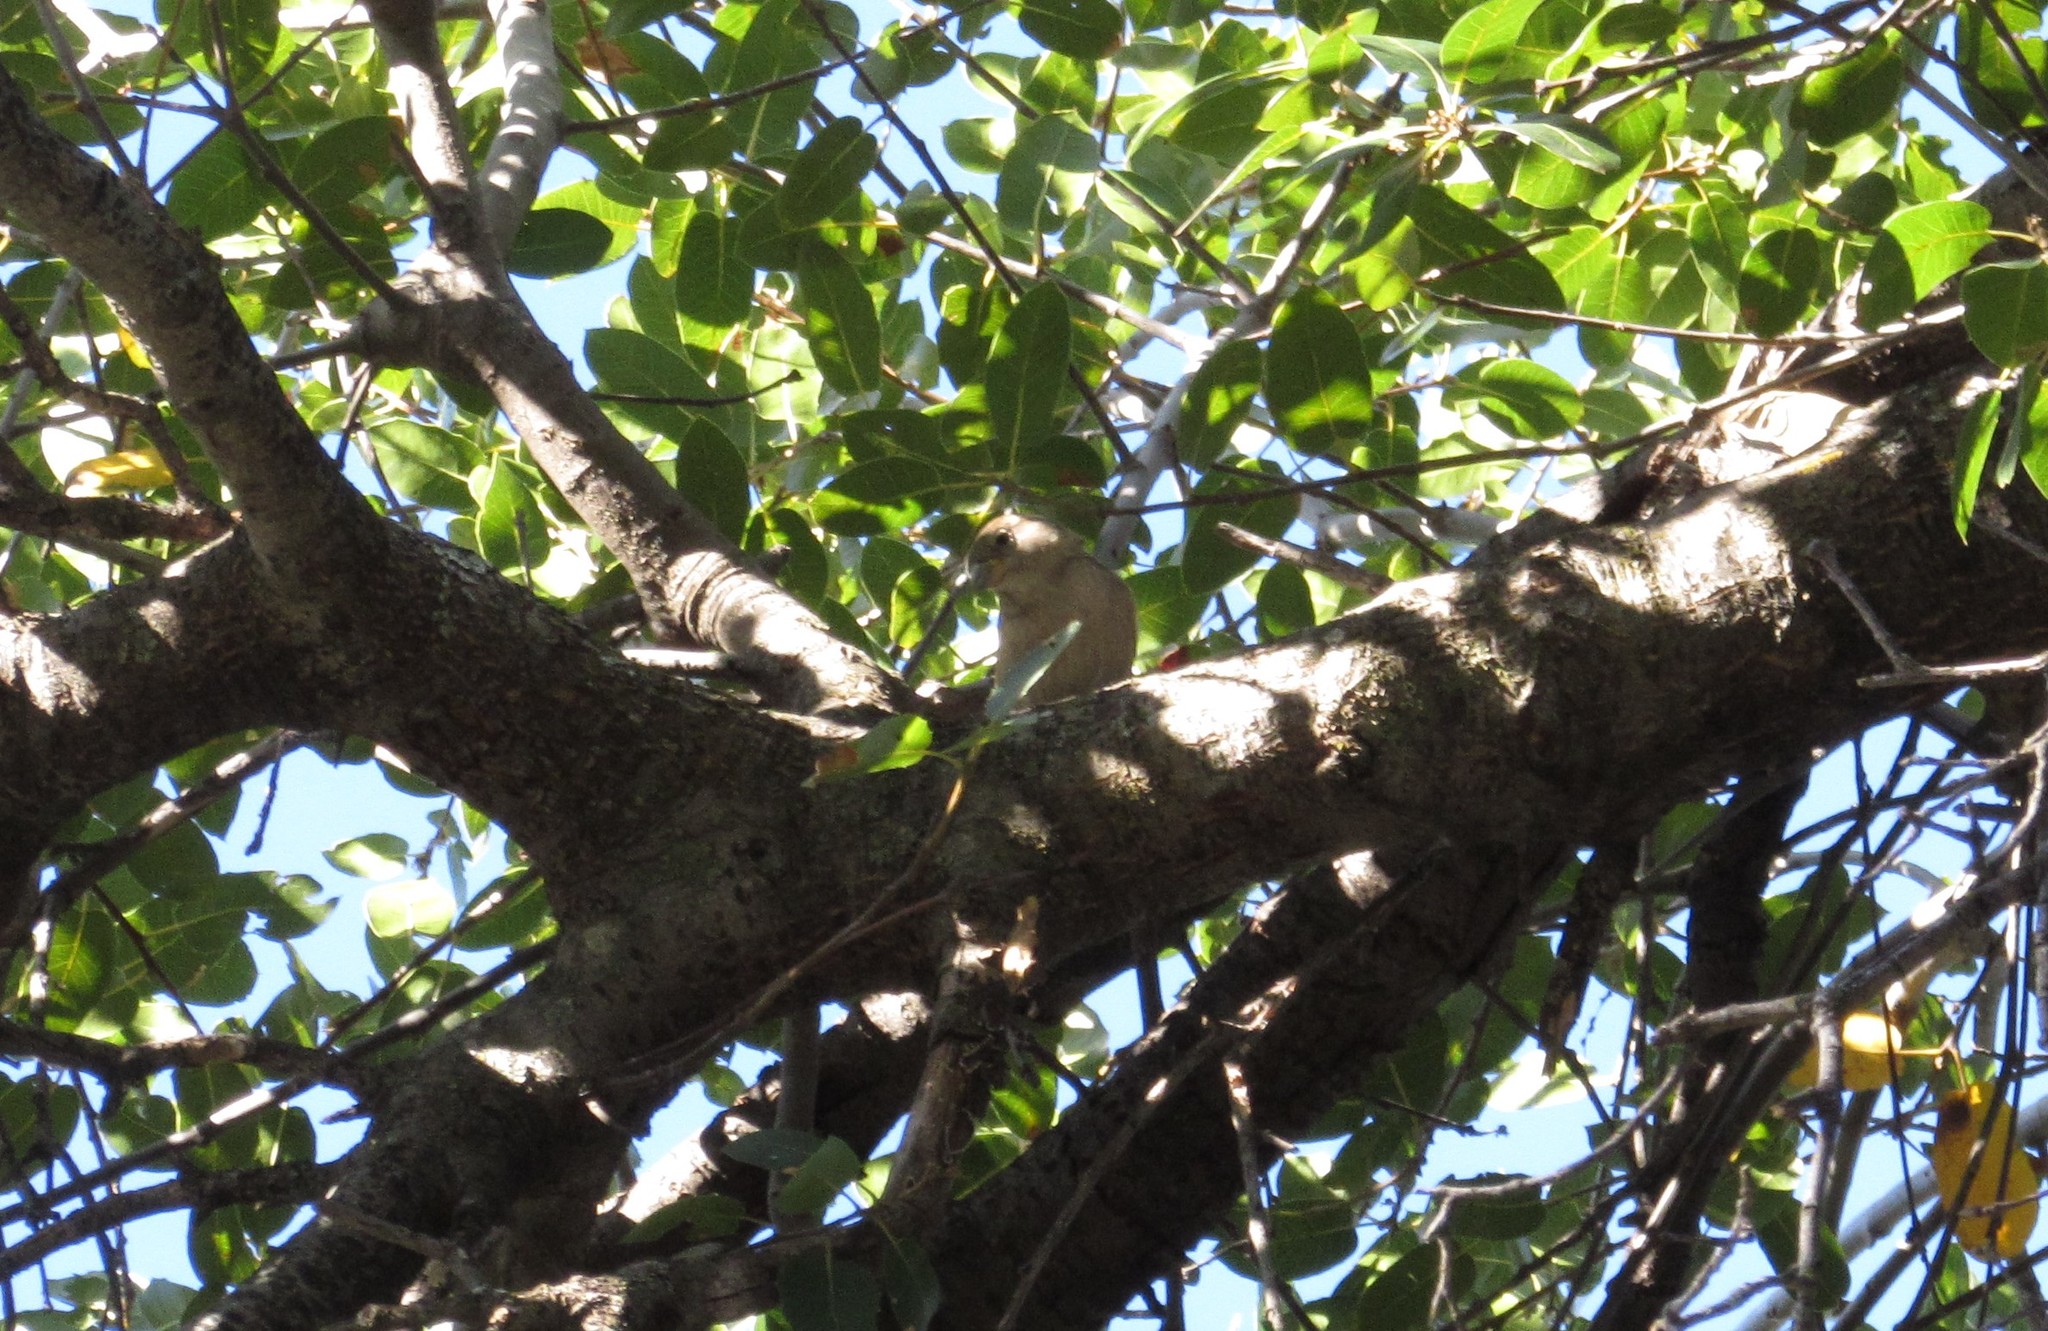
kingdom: Animalia
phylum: Chordata
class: Aves
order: Passeriformes
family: Passeridae
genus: Passer
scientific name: Passer domesticus
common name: House sparrow
